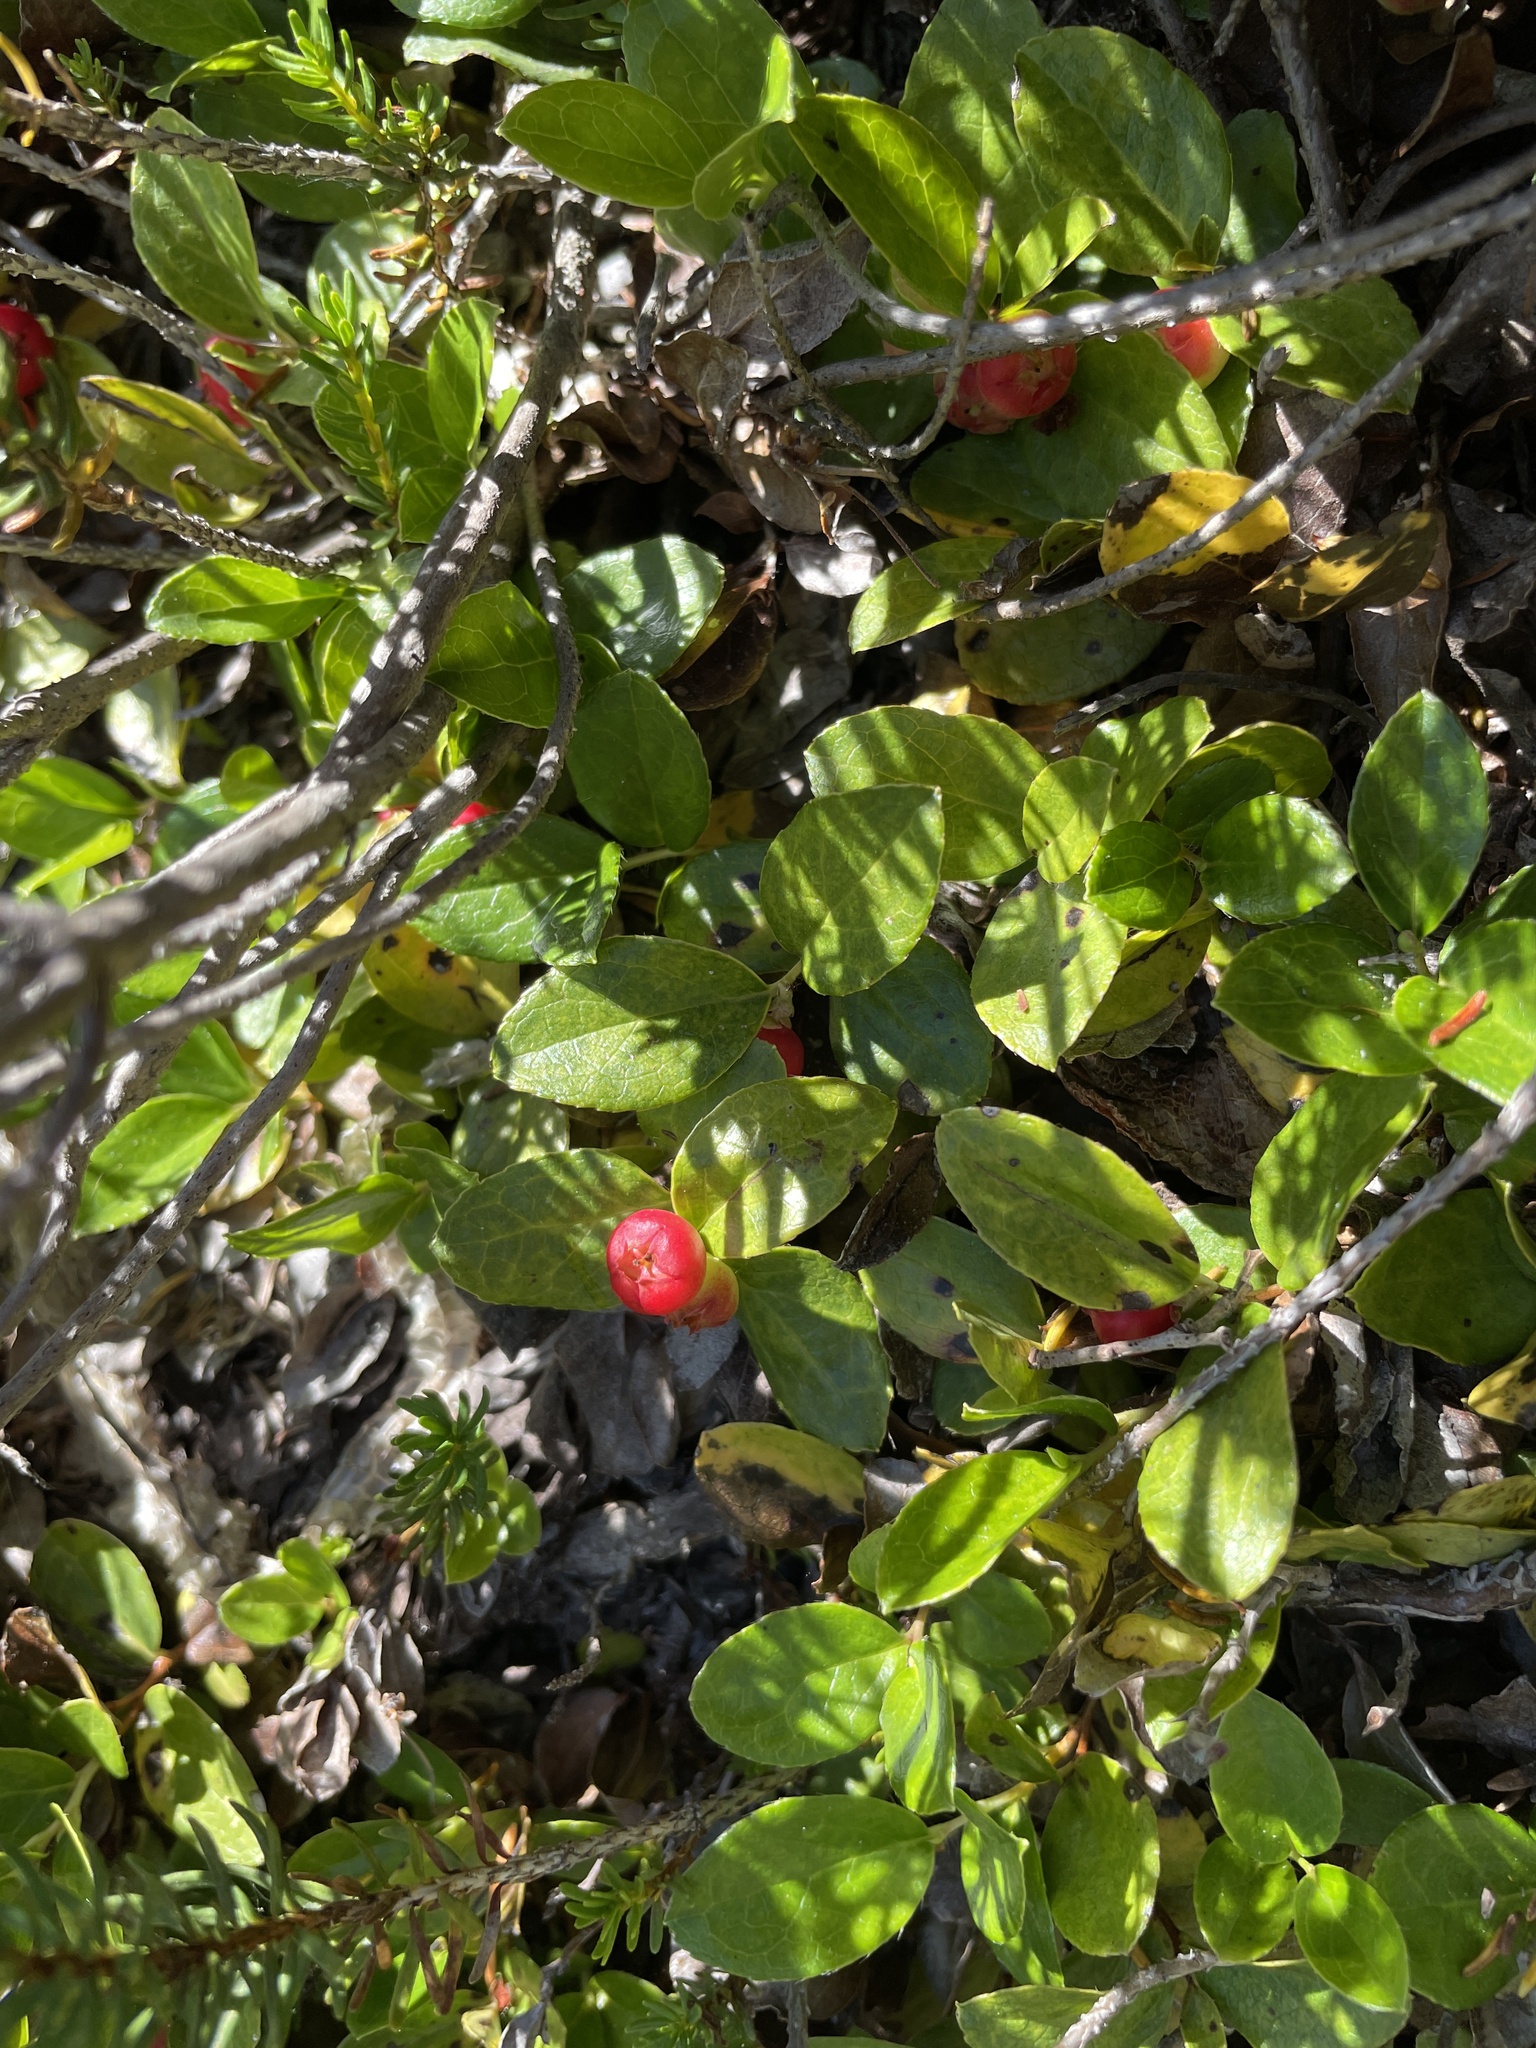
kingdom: Plantae
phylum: Tracheophyta
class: Magnoliopsida
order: Ericales
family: Ericaceae
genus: Gaultheria
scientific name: Gaultheria ovatifolia
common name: Oregon wintergreen
